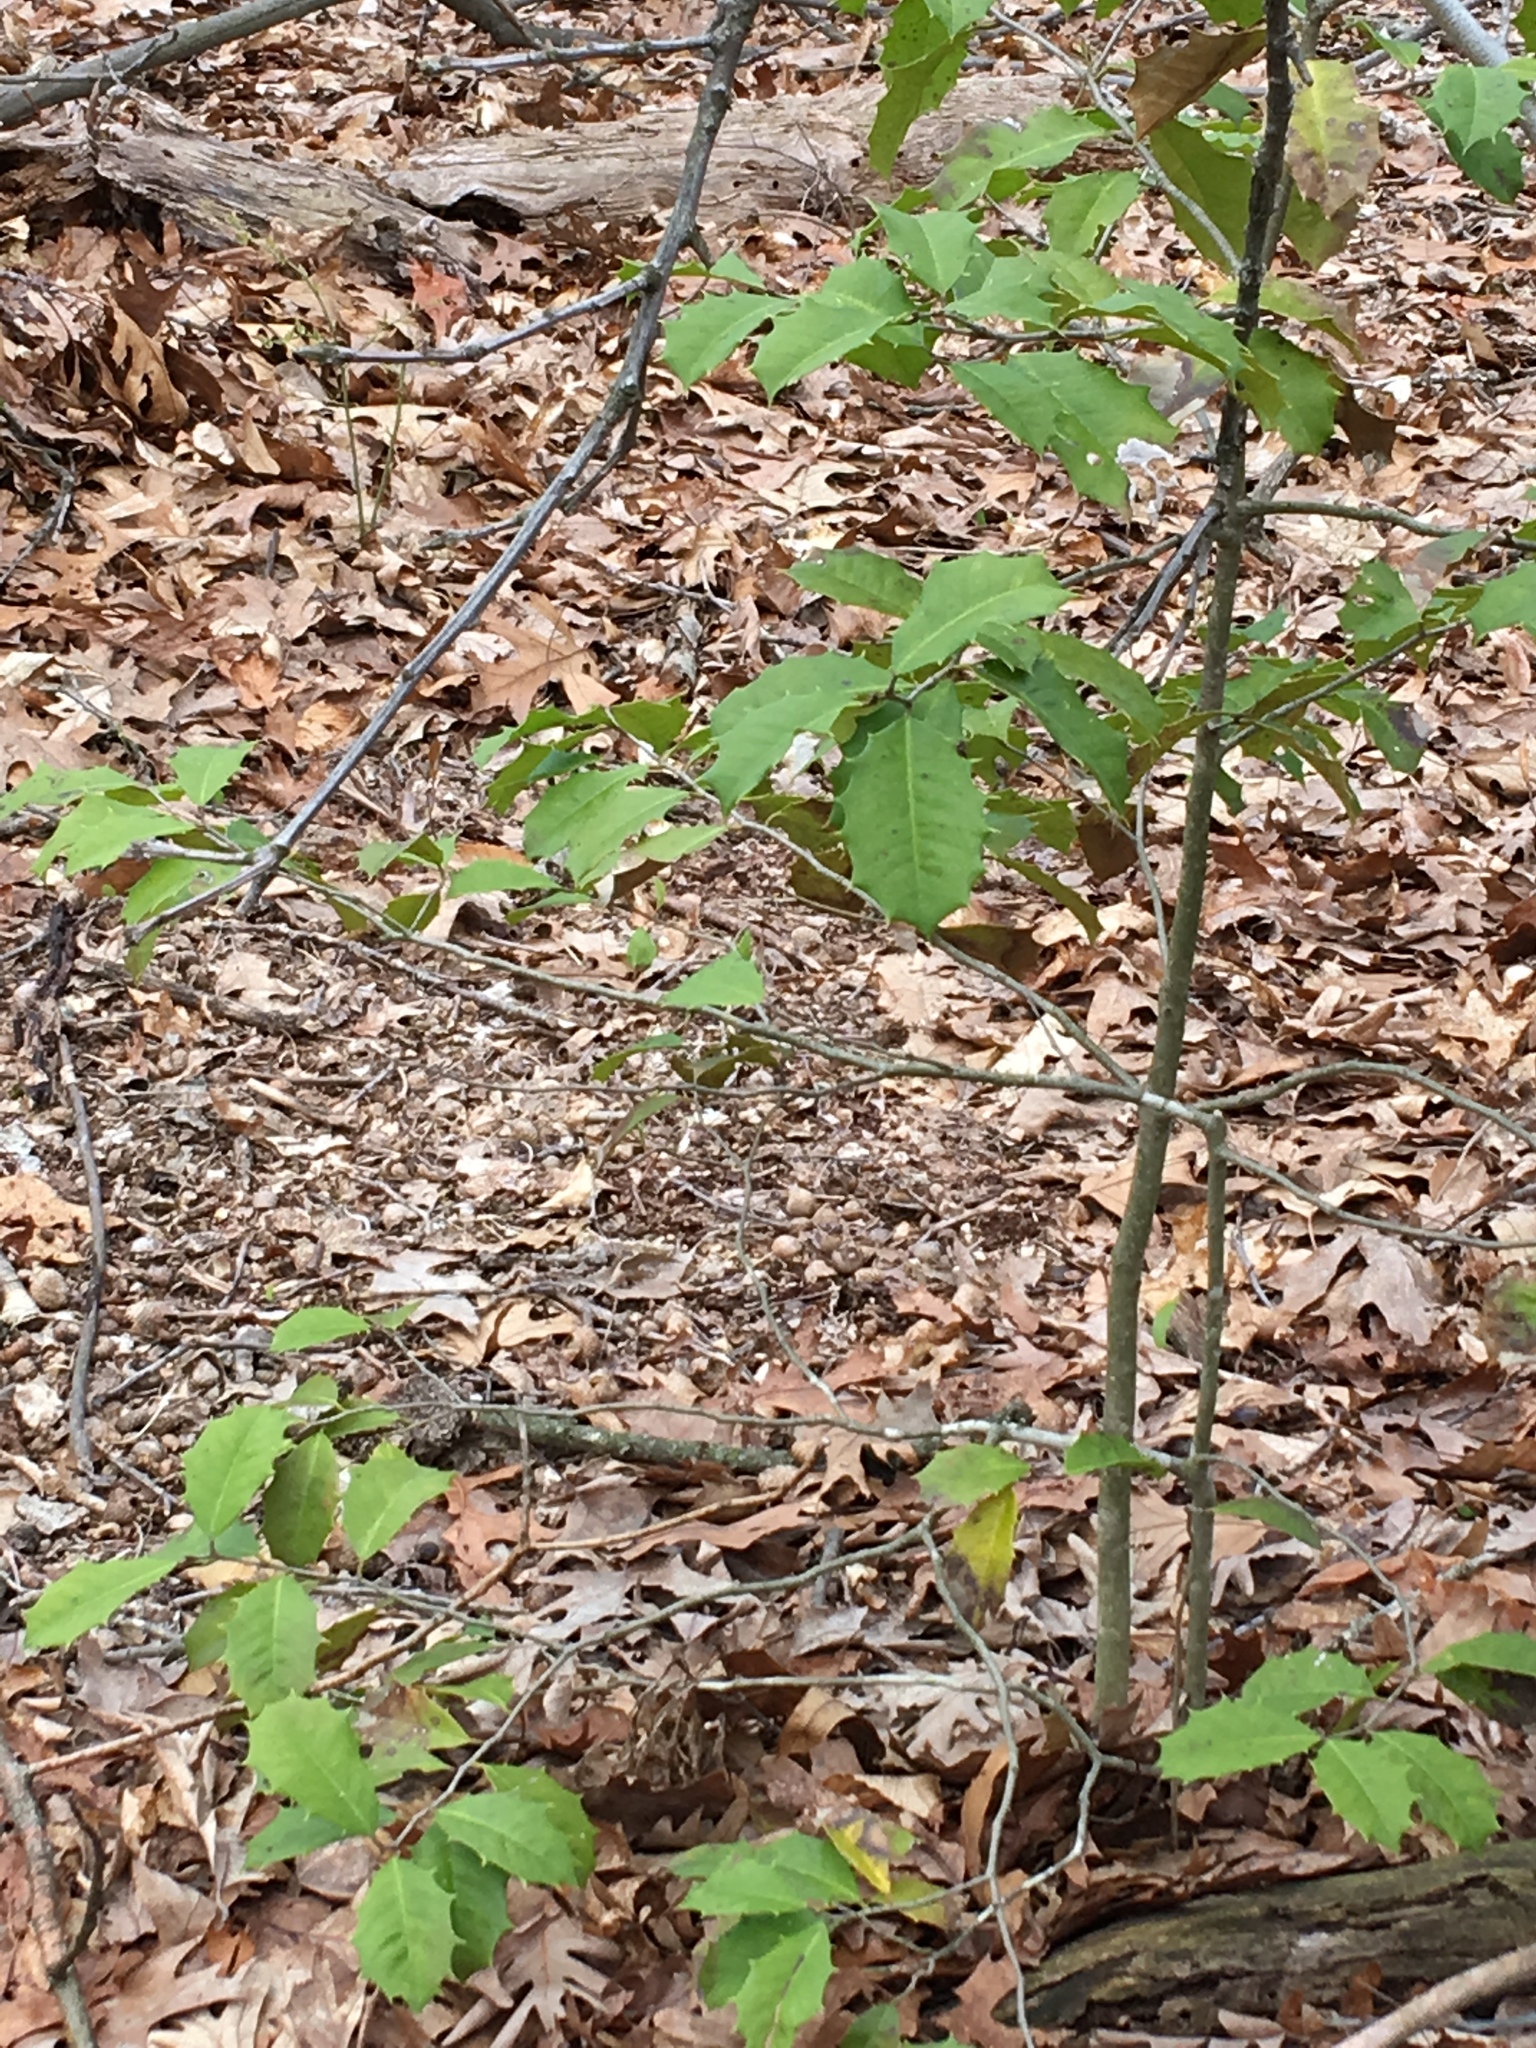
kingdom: Plantae
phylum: Tracheophyta
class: Magnoliopsida
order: Aquifoliales
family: Aquifoliaceae
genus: Ilex
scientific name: Ilex opaca
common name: American holly
